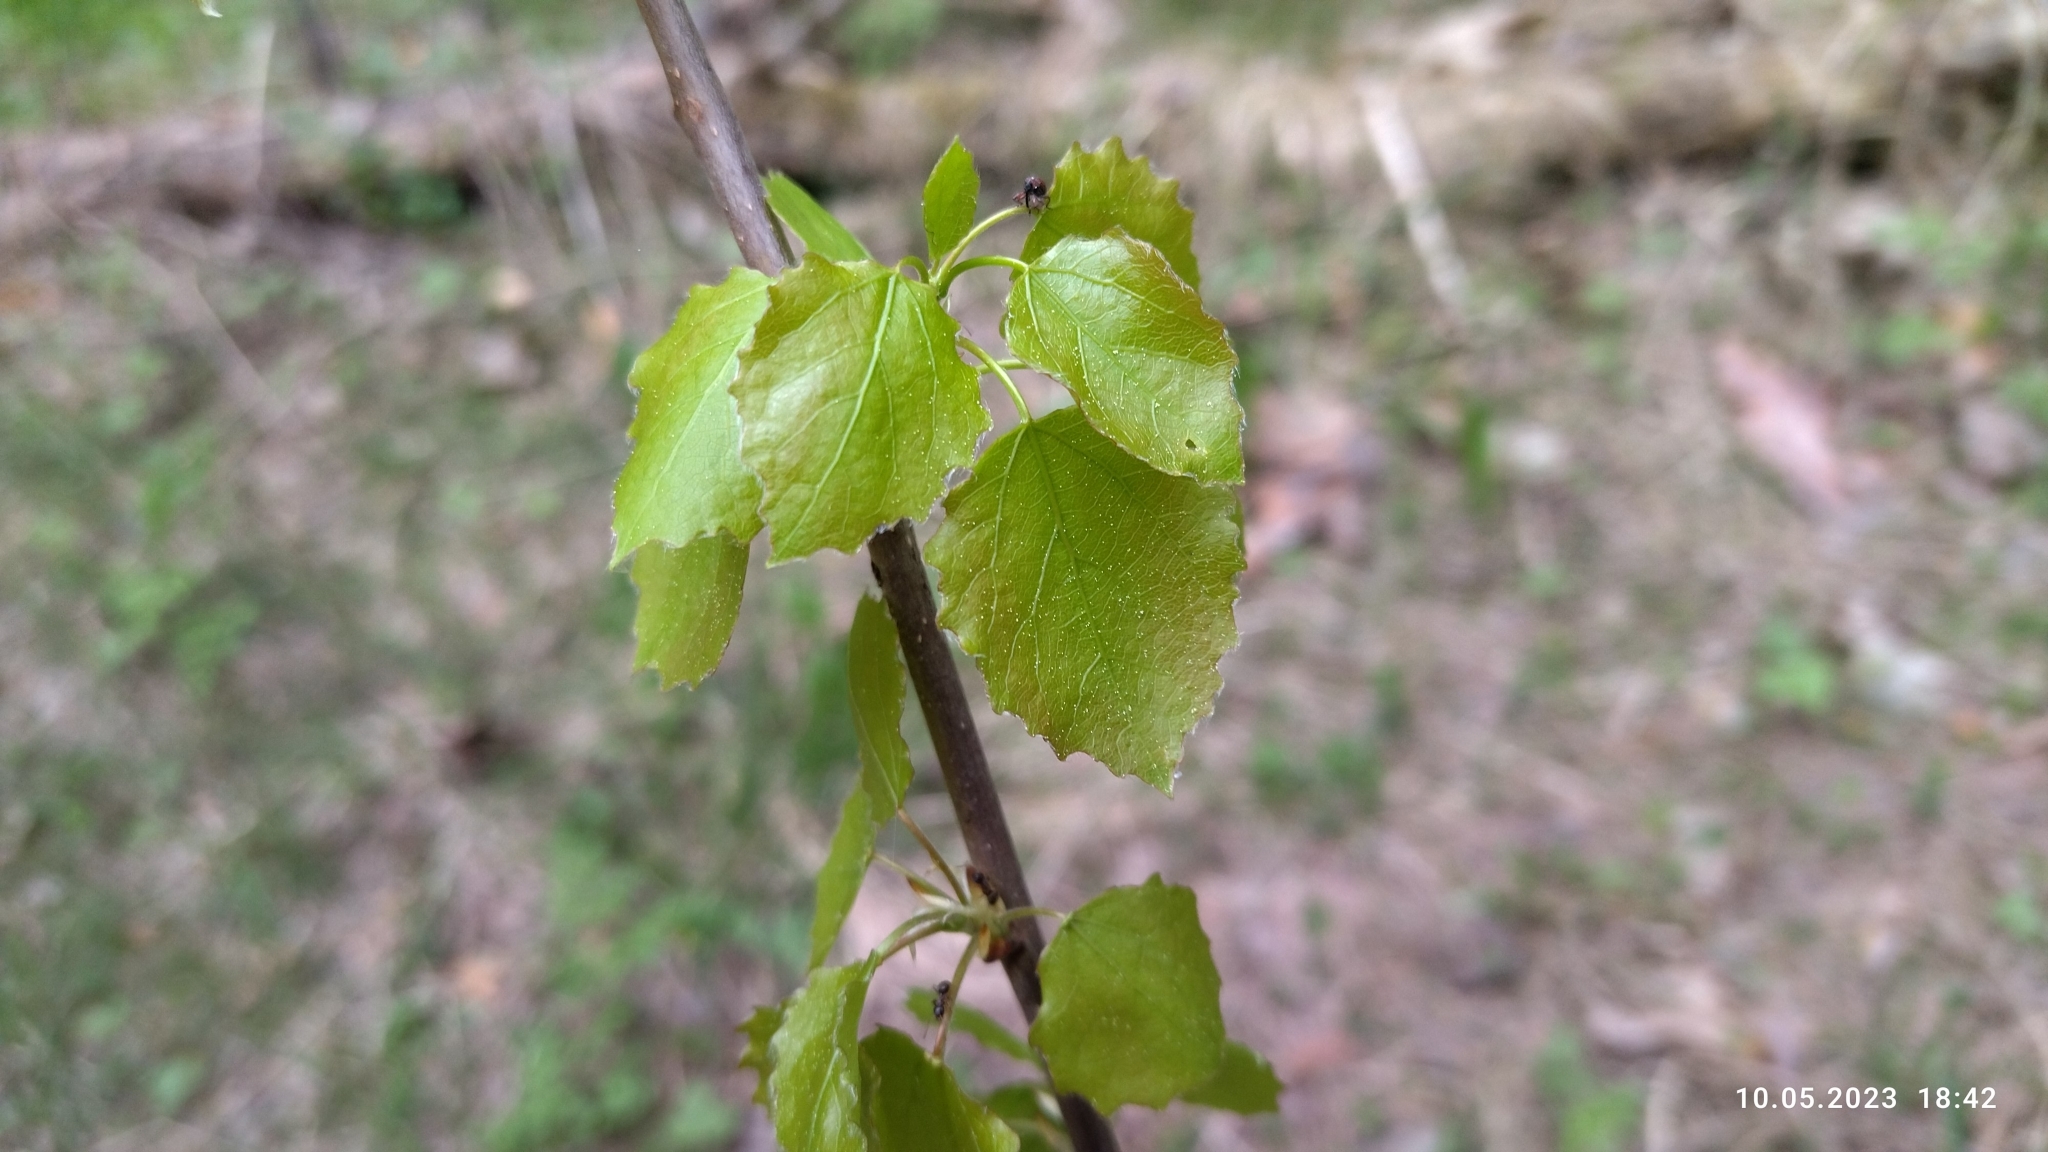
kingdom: Plantae
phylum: Tracheophyta
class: Magnoliopsida
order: Malpighiales
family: Salicaceae
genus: Populus
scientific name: Populus tremula
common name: European aspen
